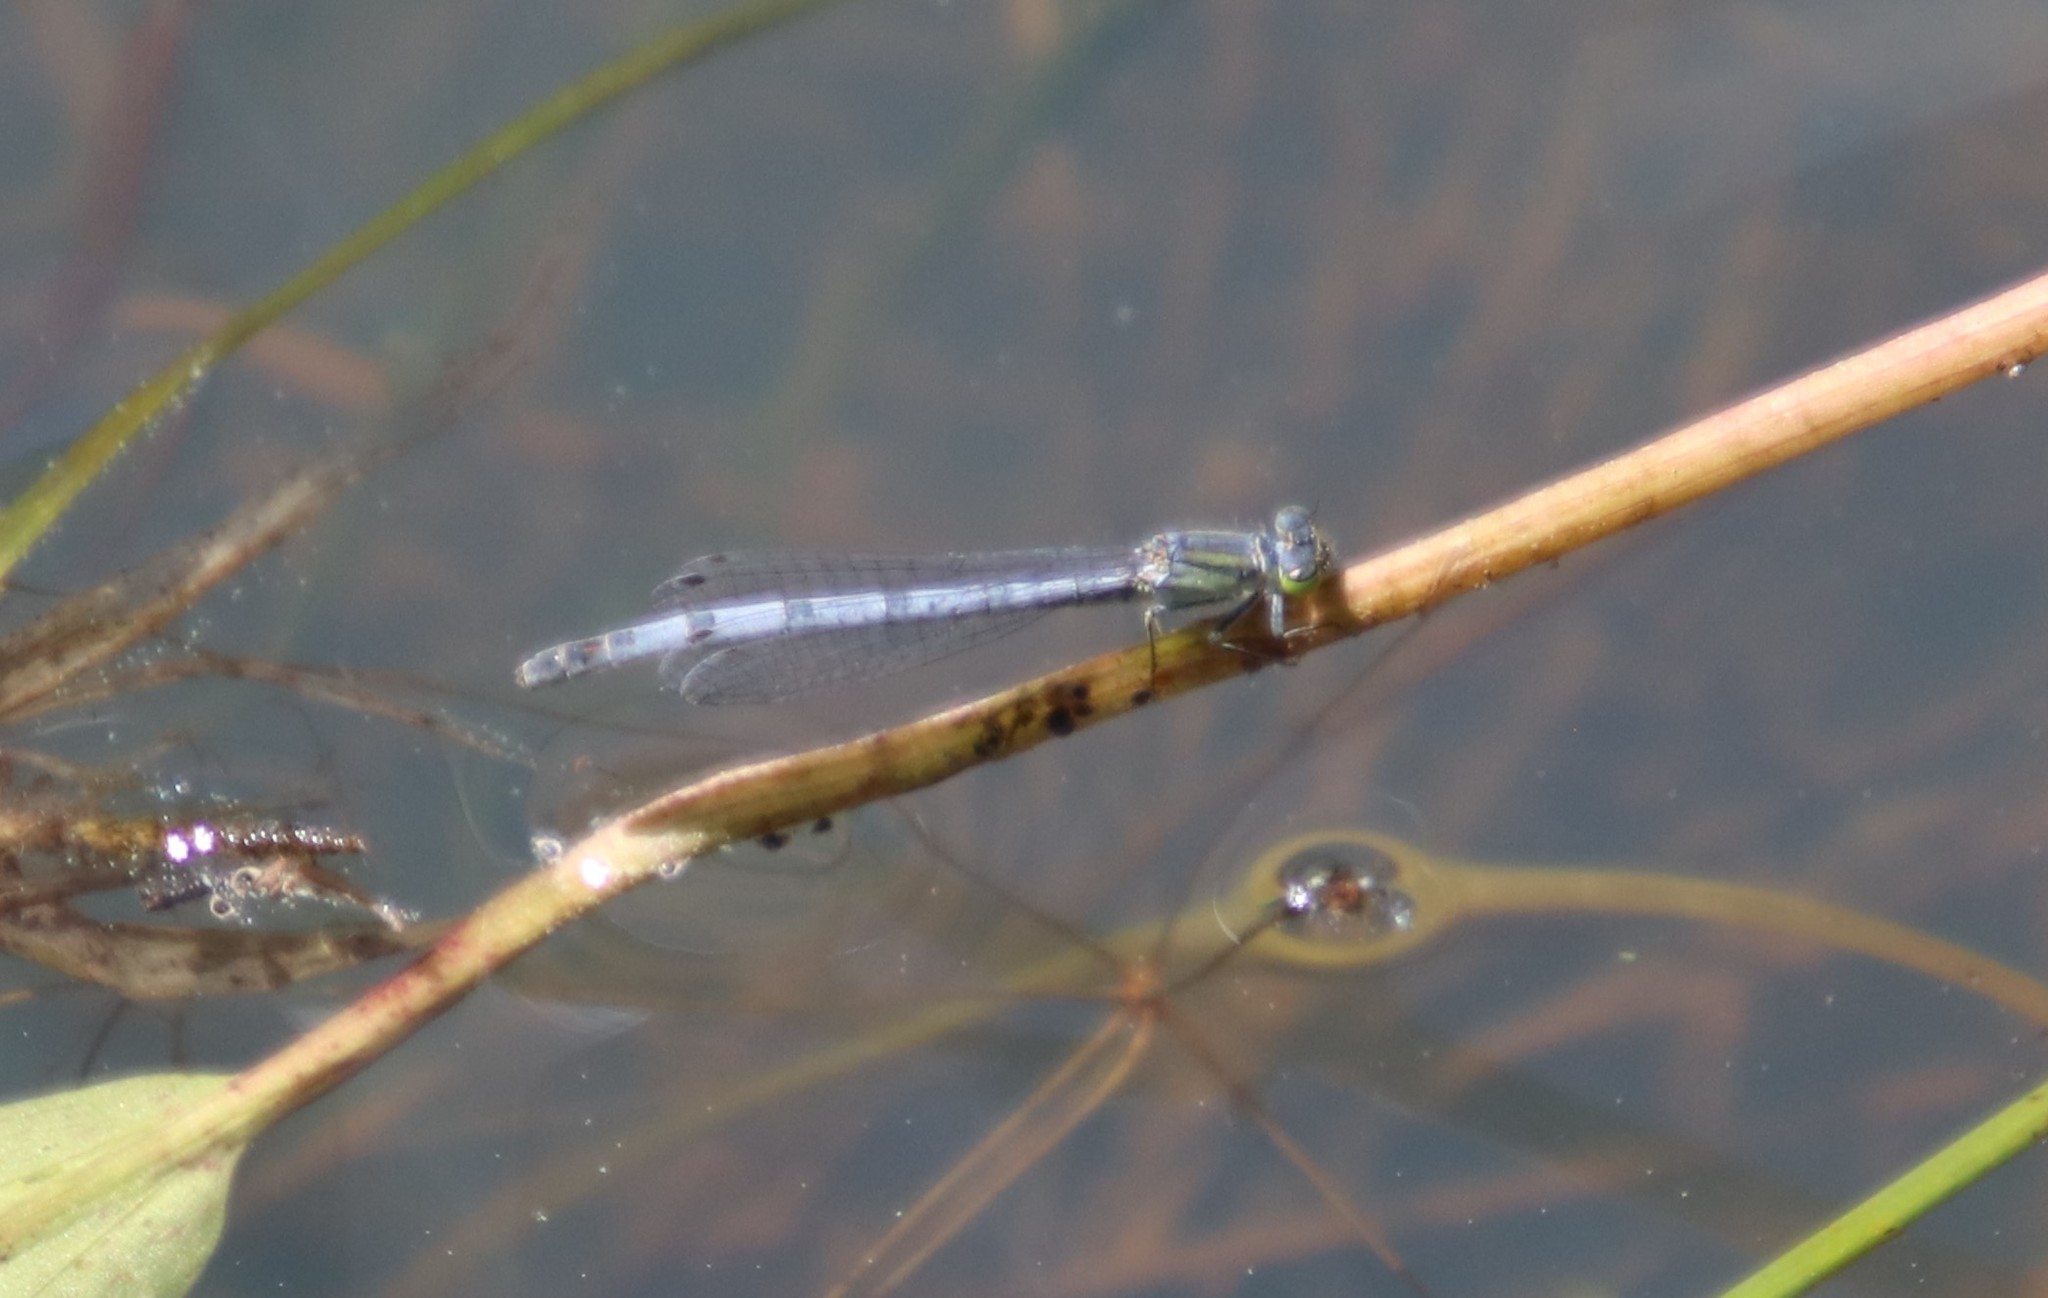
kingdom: Animalia
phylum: Arthropoda
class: Insecta
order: Odonata
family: Coenagrionidae
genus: Ischnura
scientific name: Ischnura perparva
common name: Western forktail
